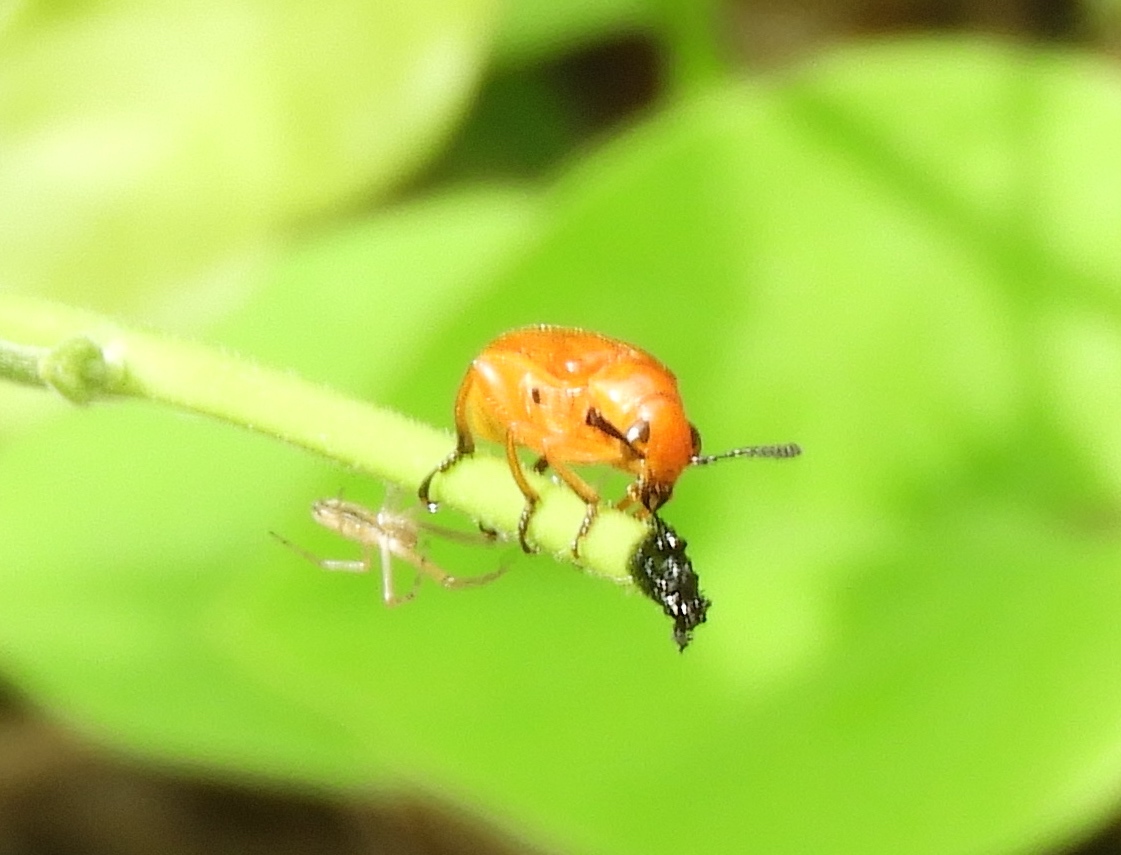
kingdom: Animalia
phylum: Arthropoda
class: Insecta
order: Coleoptera
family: Megalopodidae
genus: Agathomerus
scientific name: Agathomerus rufus
